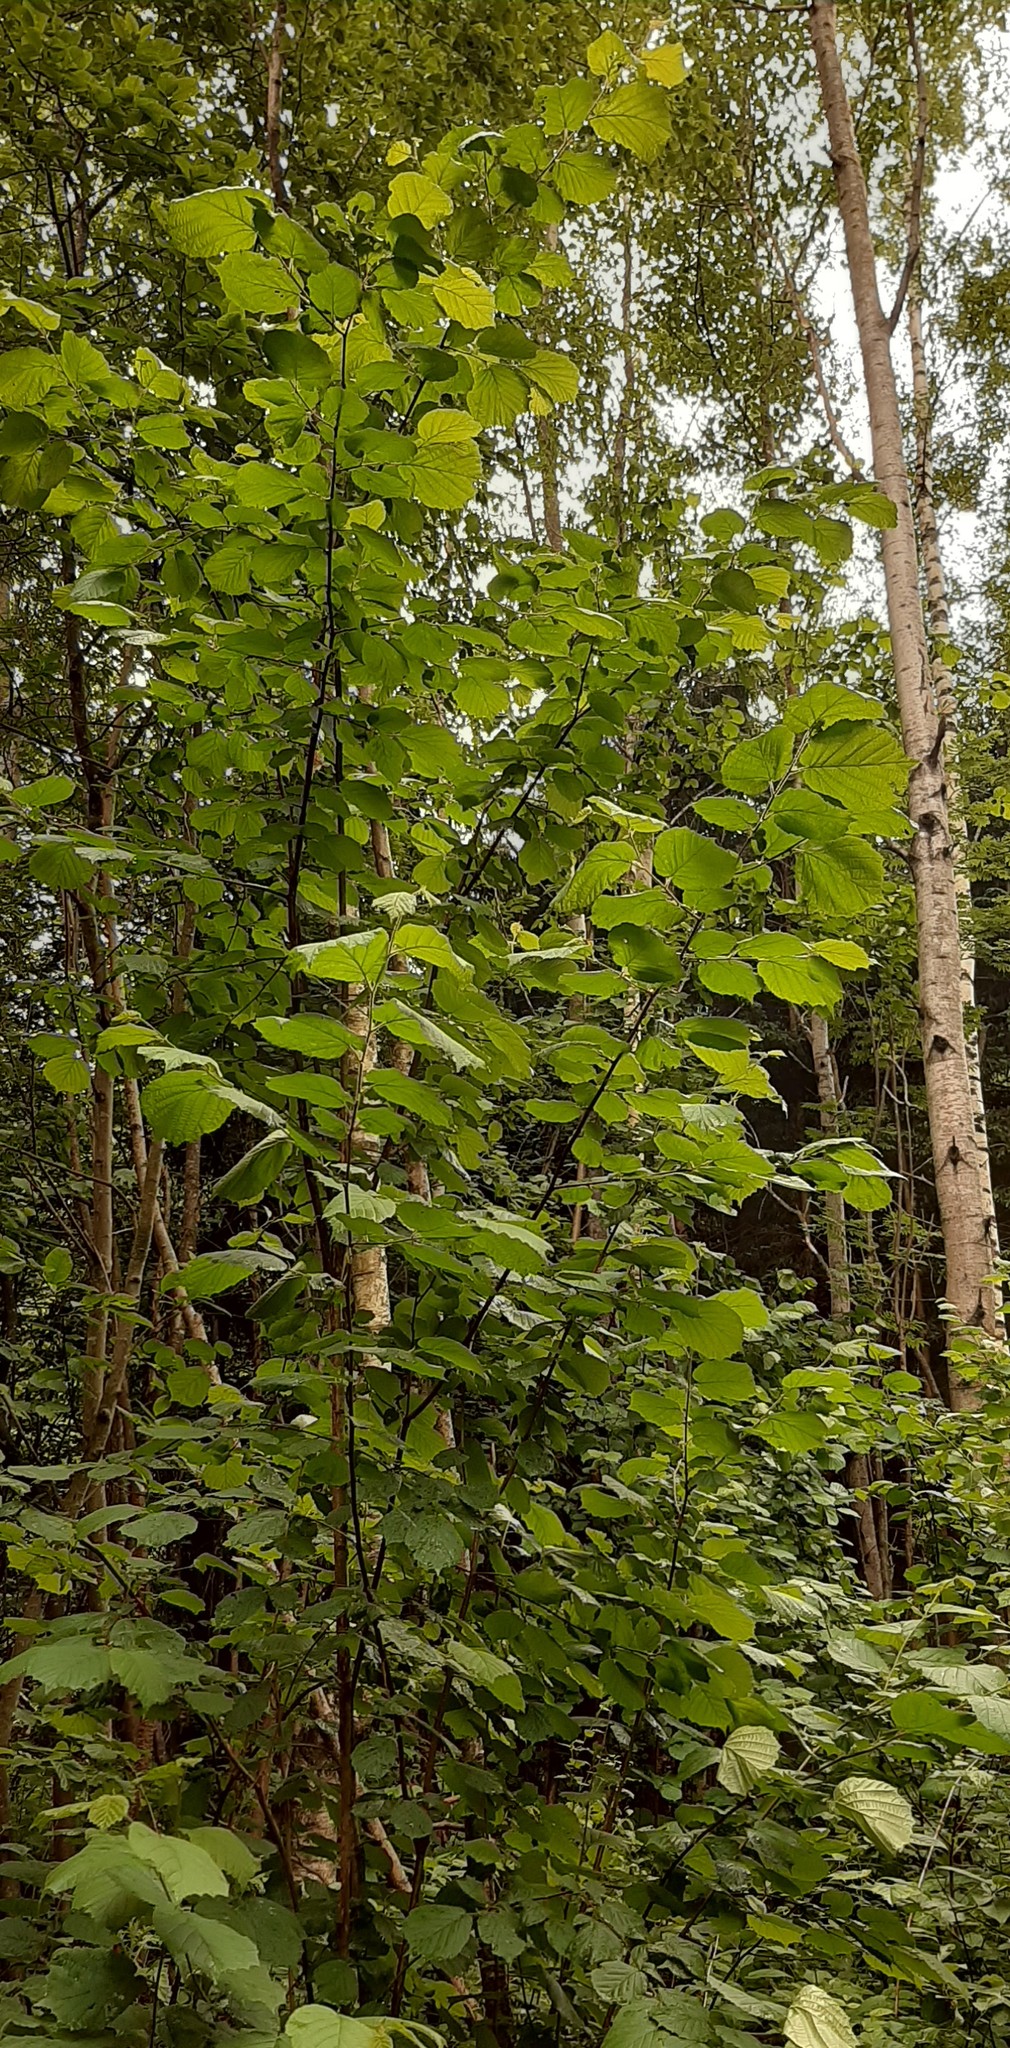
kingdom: Plantae
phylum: Tracheophyta
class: Magnoliopsida
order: Fagales
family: Betulaceae
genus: Corylus
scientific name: Corylus avellana
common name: European hazel
